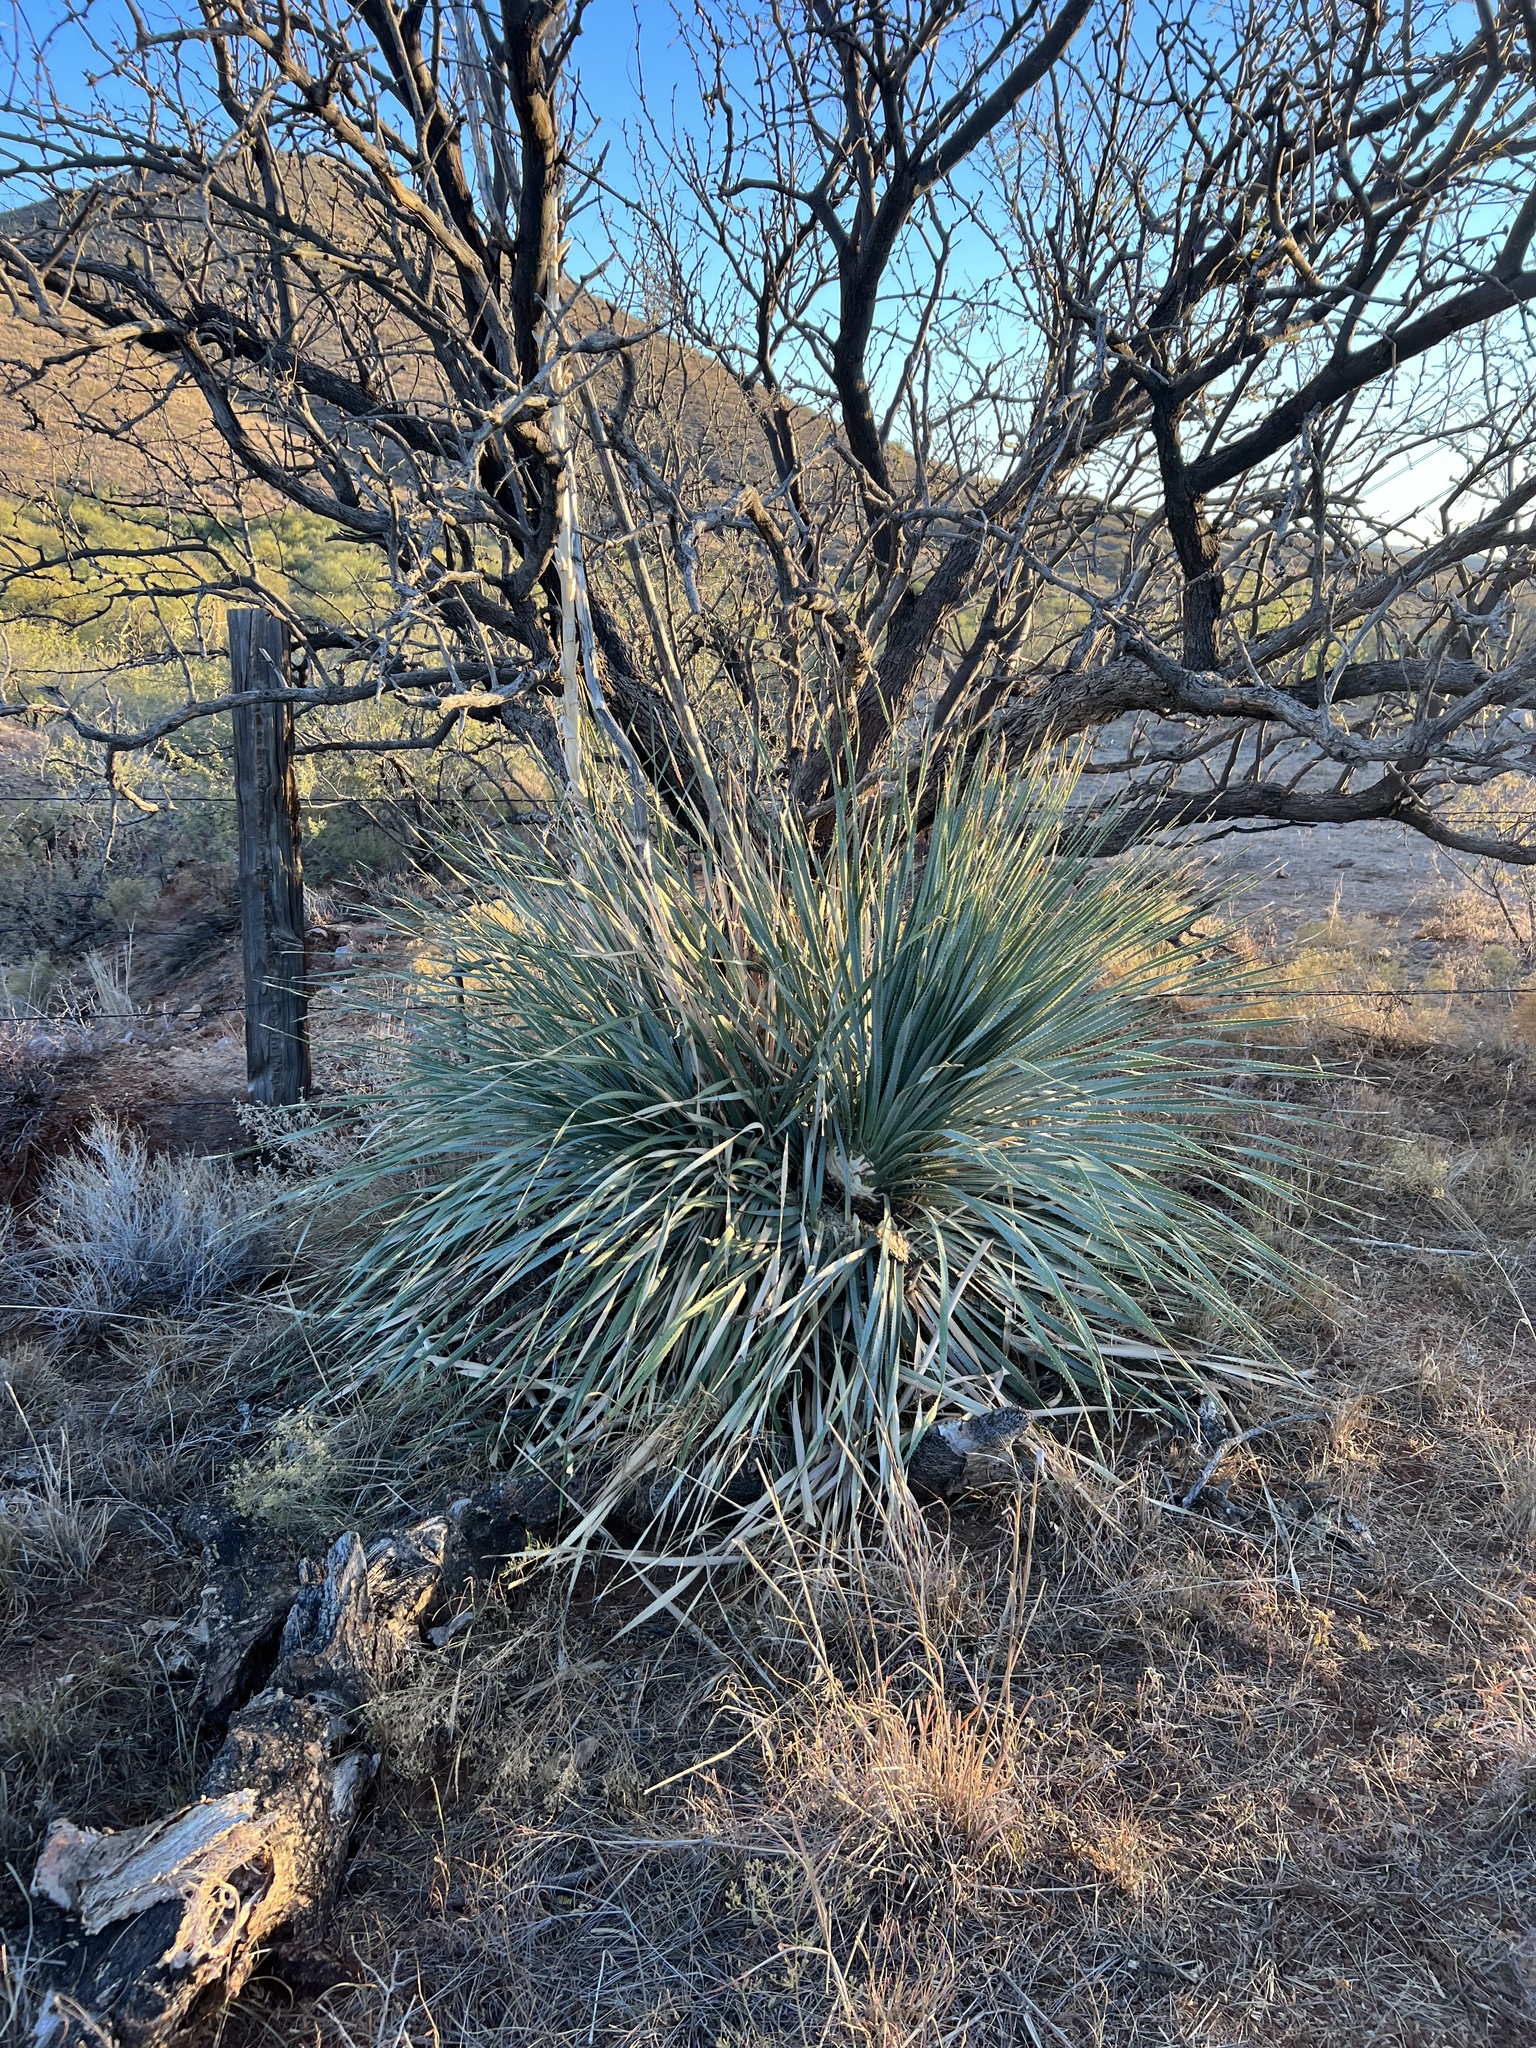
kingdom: Plantae
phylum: Tracheophyta
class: Liliopsida
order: Asparagales
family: Asparagaceae
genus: Dasylirion
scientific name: Dasylirion wheeleri
